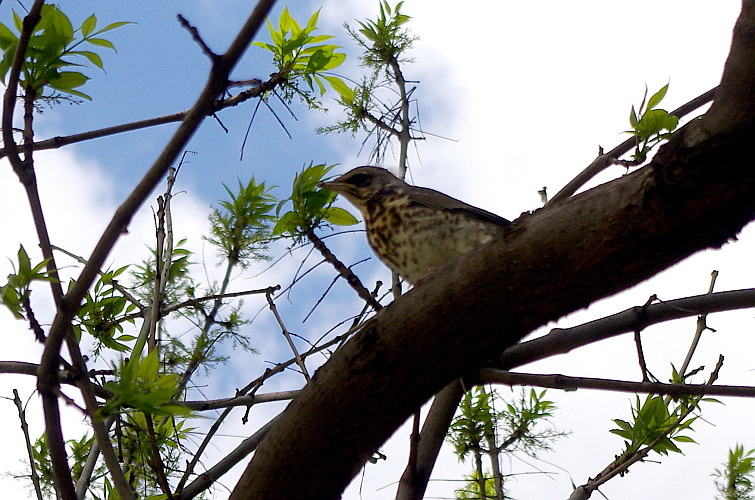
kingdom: Animalia
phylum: Chordata
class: Aves
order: Passeriformes
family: Turdidae
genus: Turdus
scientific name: Turdus pilaris
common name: Fieldfare
